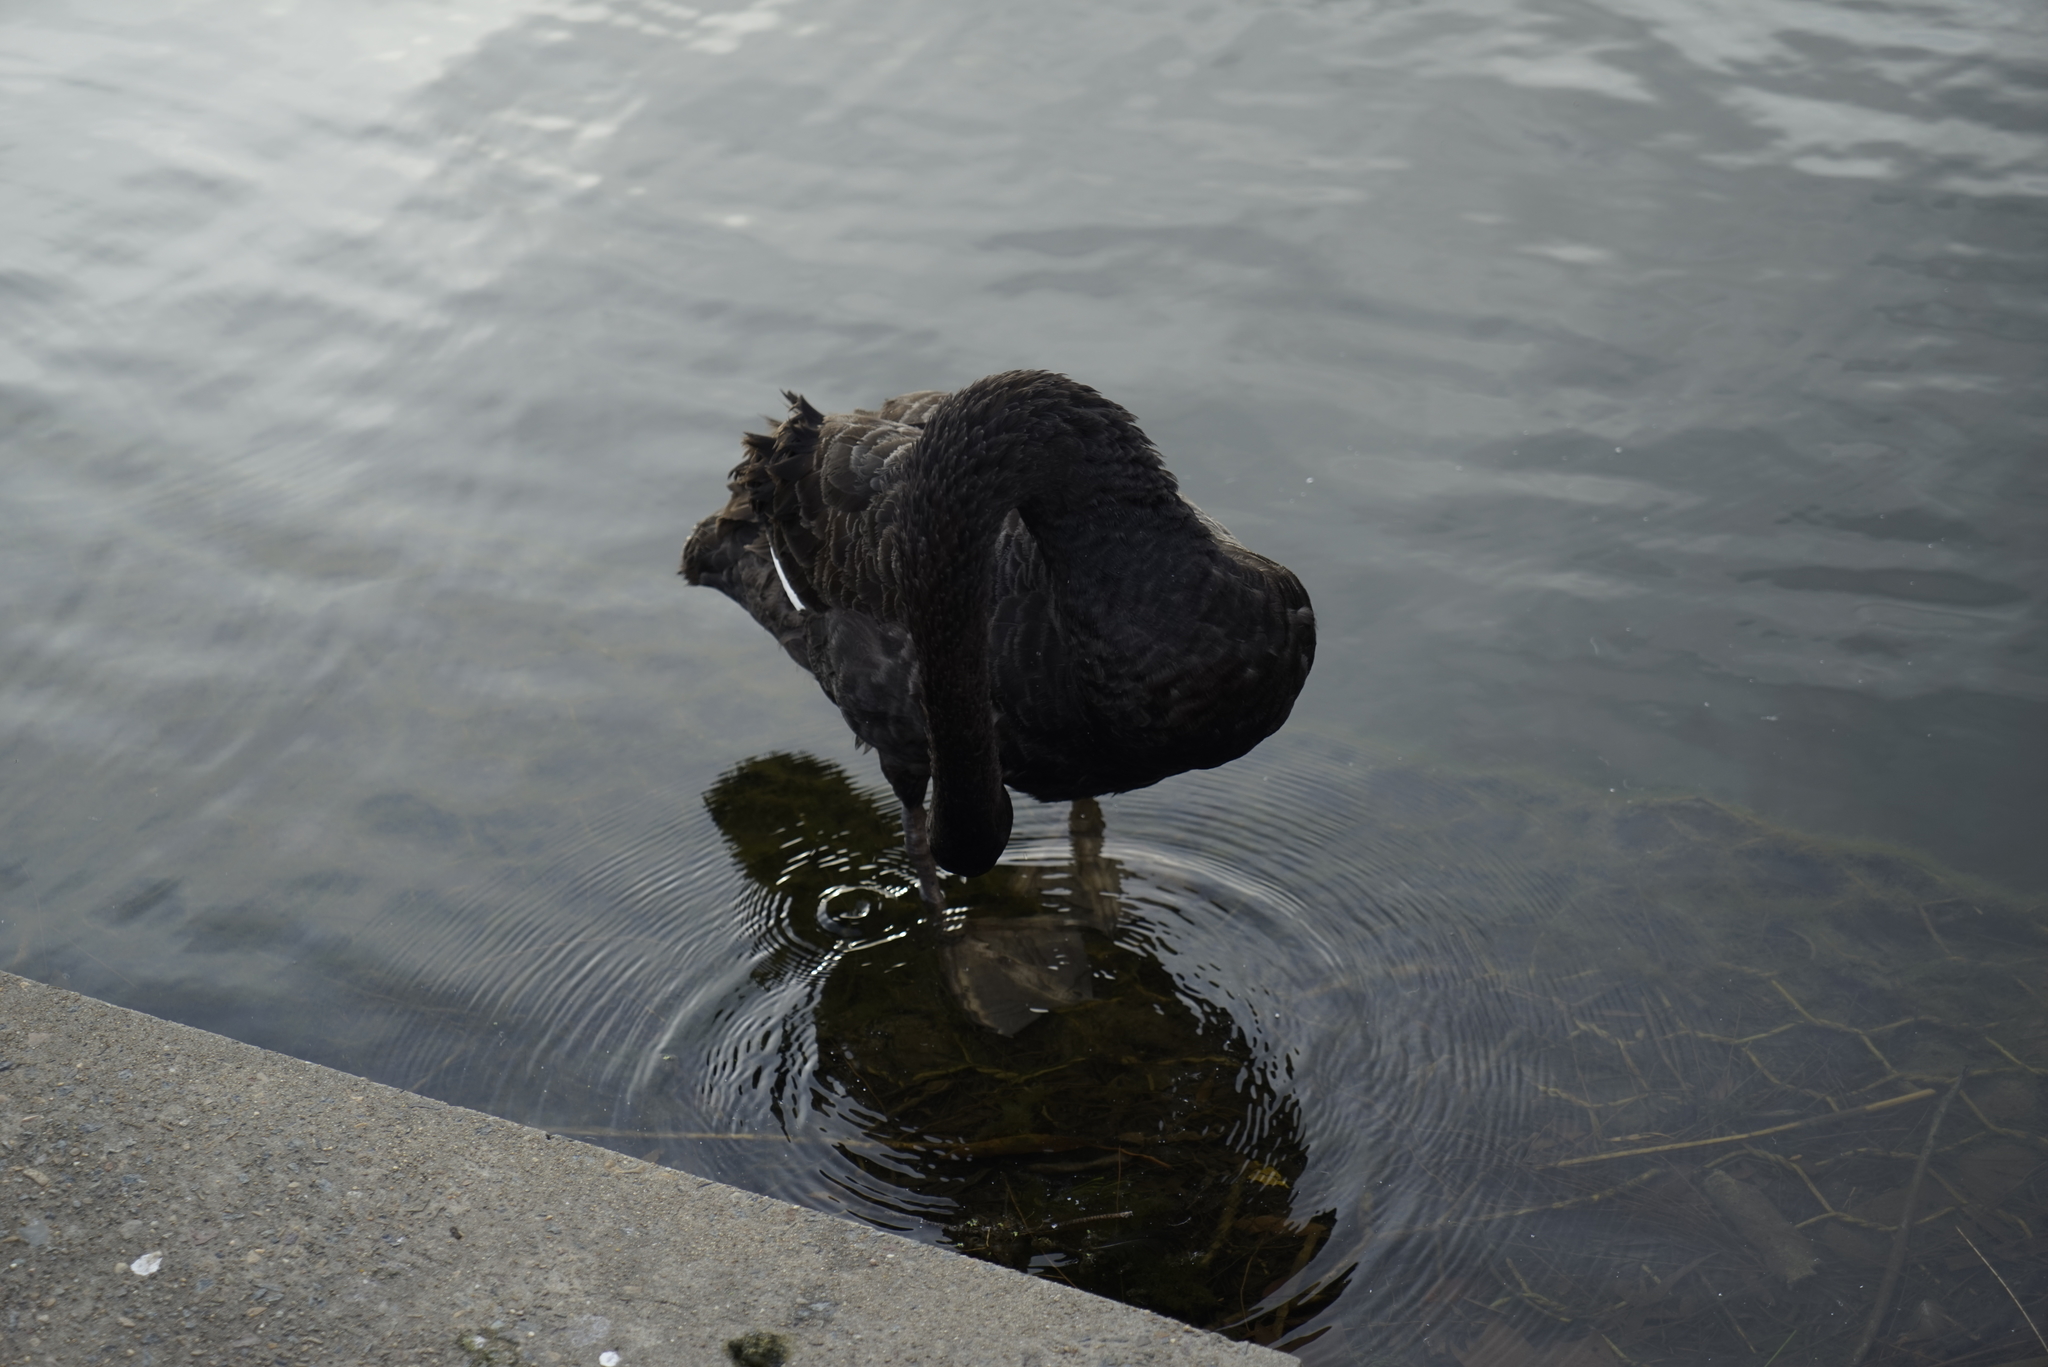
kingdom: Animalia
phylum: Chordata
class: Aves
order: Anseriformes
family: Anatidae
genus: Cygnus
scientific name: Cygnus atratus
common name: Black swan
